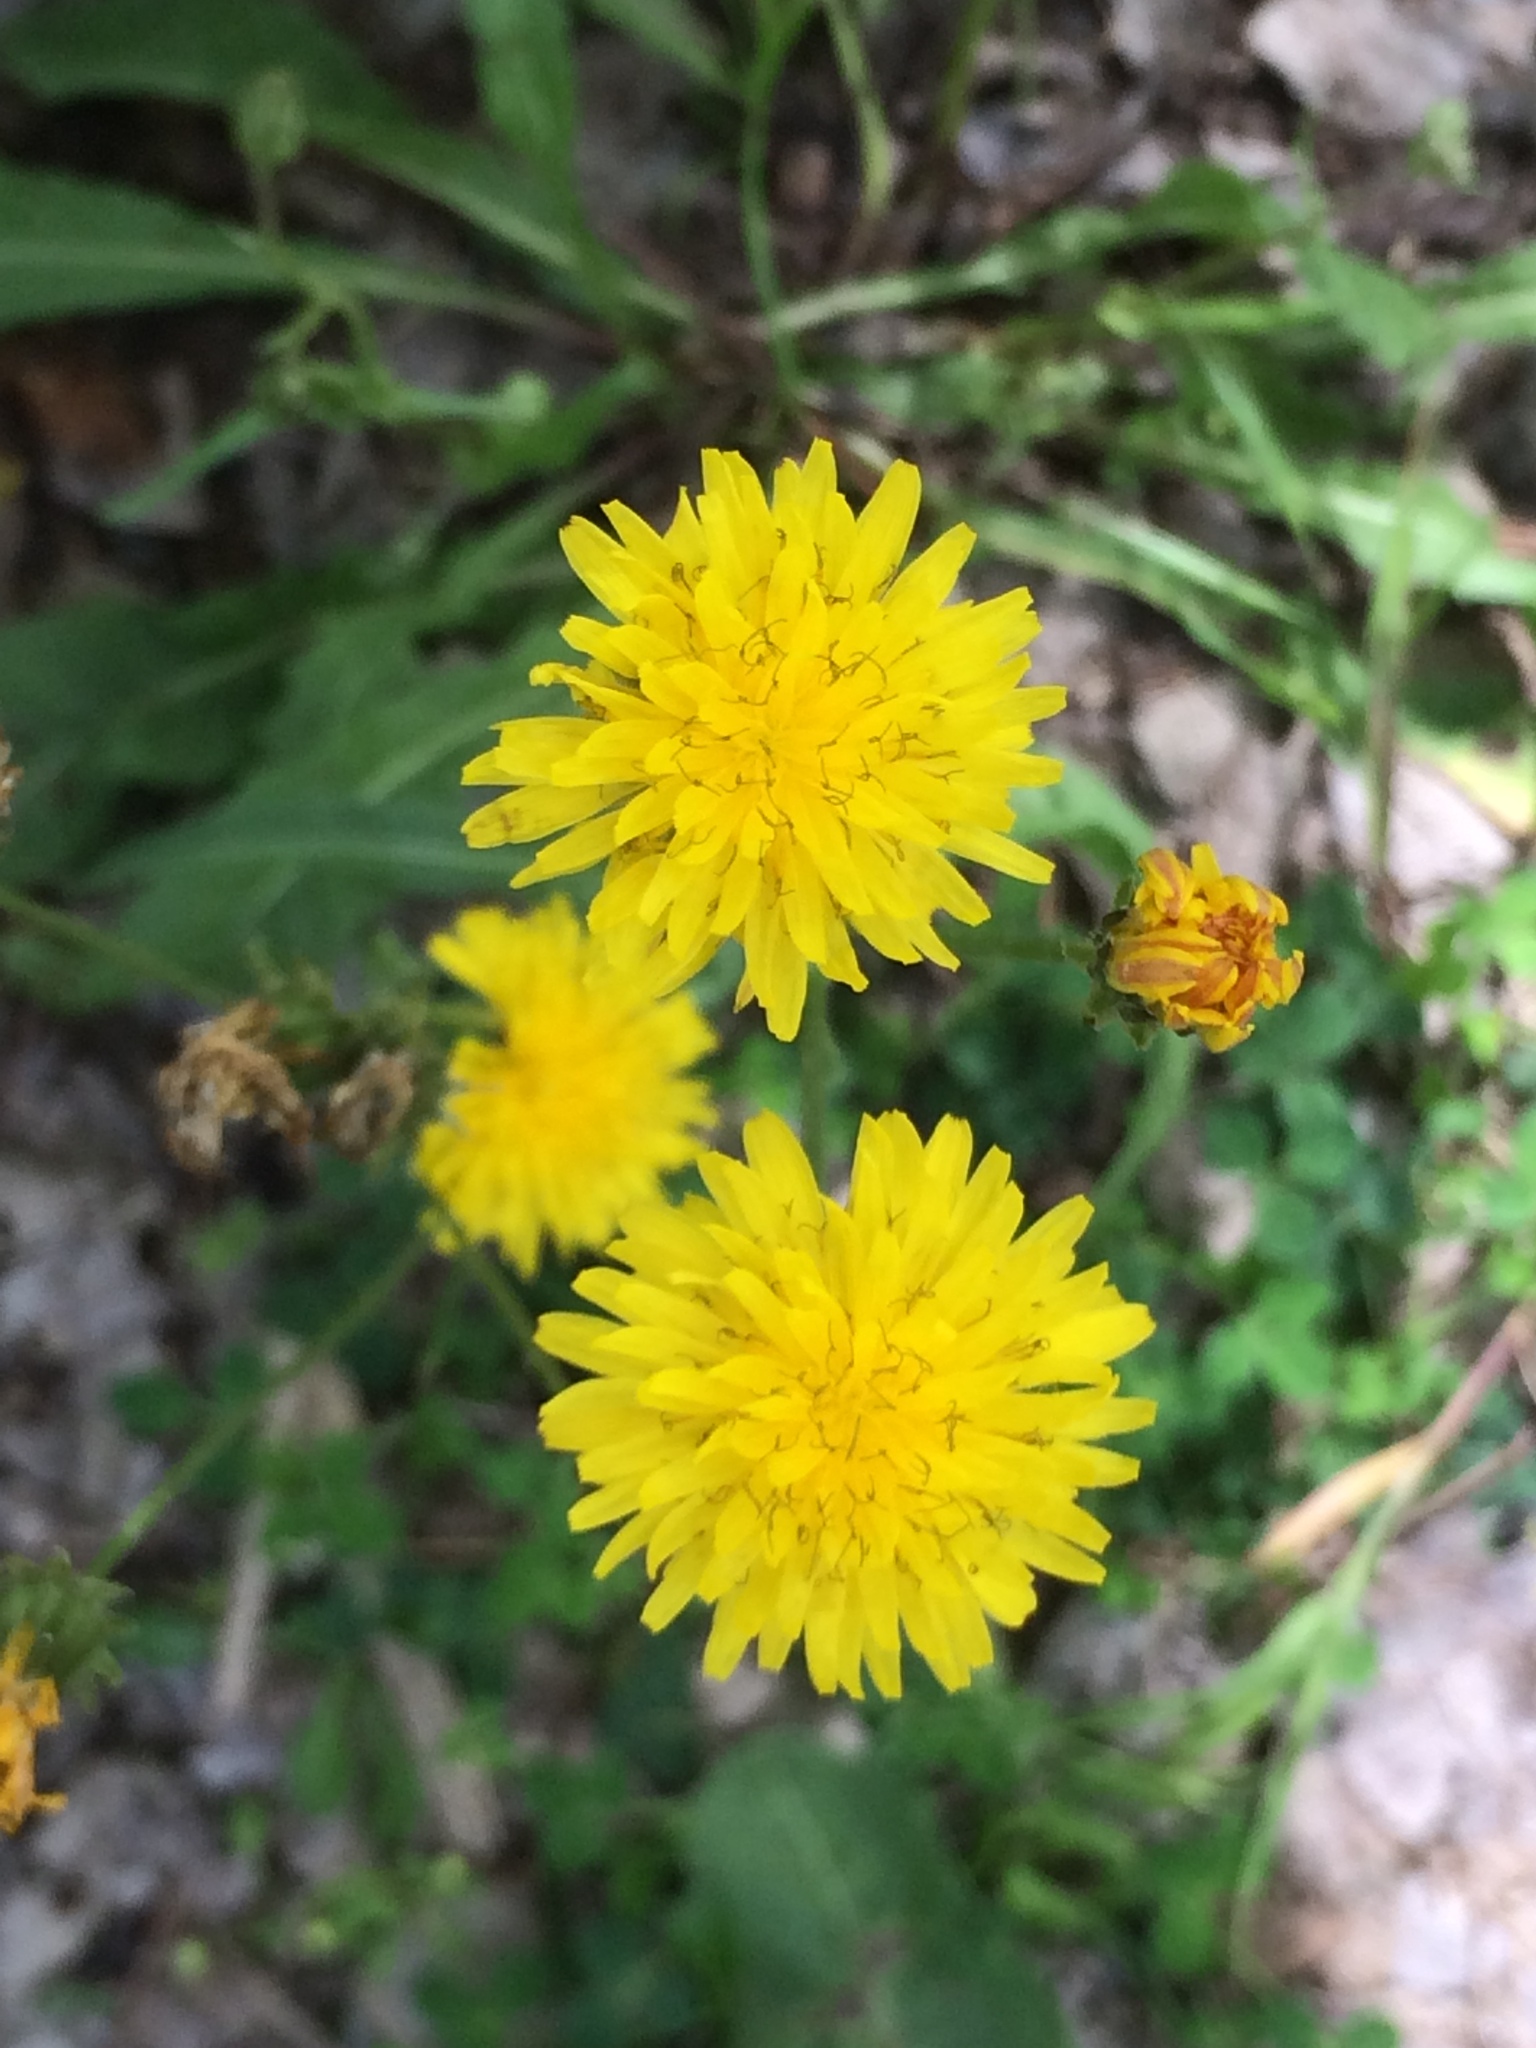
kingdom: Plantae
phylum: Tracheophyta
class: Magnoliopsida
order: Asterales
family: Asteraceae
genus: Crepis
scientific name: Crepis vesicaria
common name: Beaked hawksbeard
